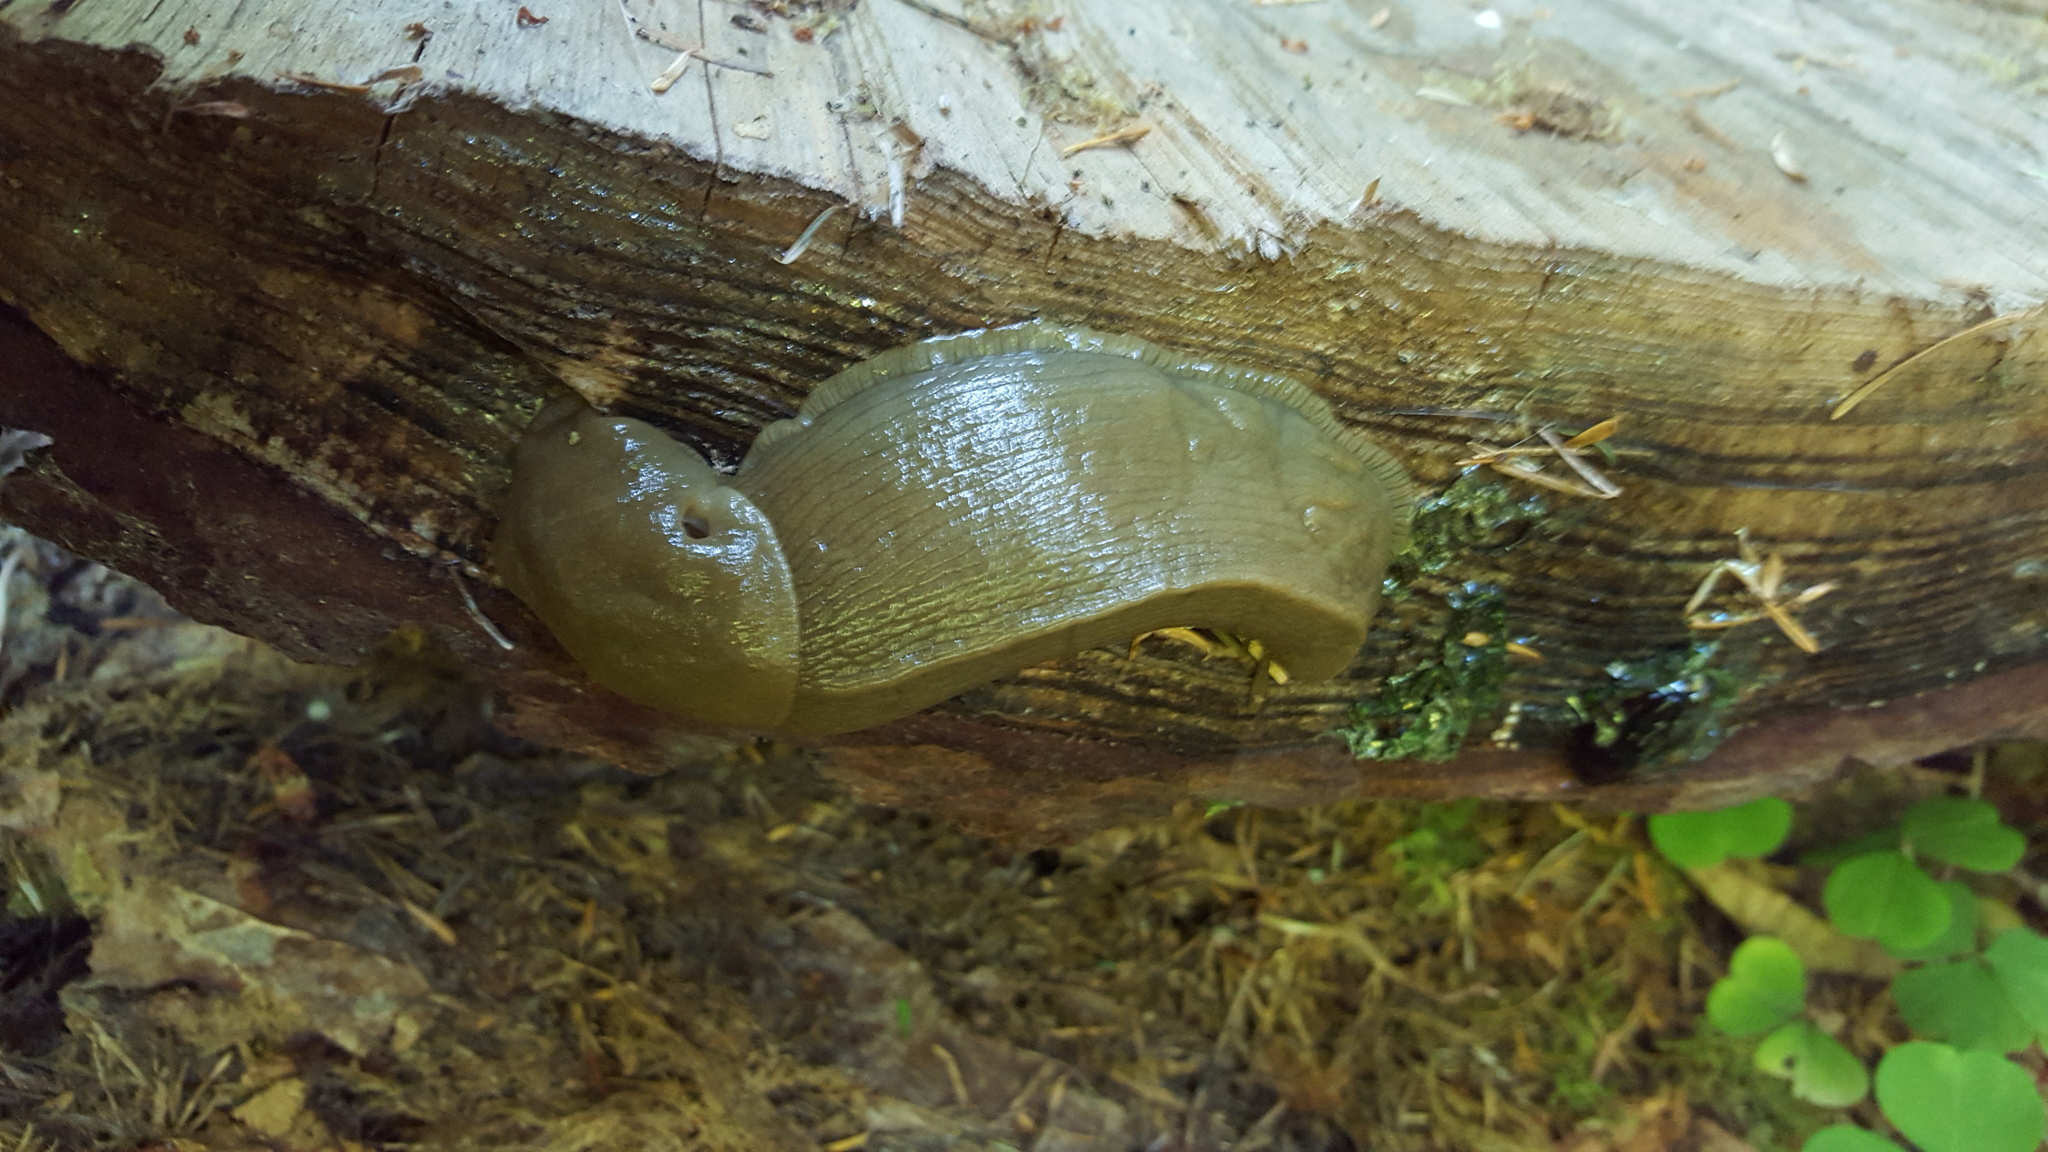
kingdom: Animalia
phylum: Mollusca
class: Gastropoda
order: Stylommatophora
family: Ariolimacidae
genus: Ariolimax
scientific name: Ariolimax columbianus
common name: Pacific banana slug
